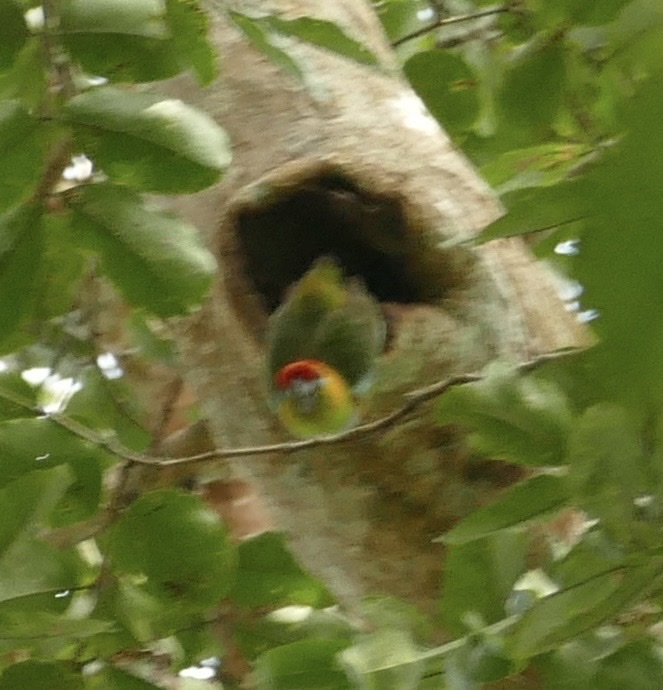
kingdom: Animalia
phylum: Chordata
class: Aves
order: Psittaciformes
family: Psittacidae
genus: Psittaculirostris
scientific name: Psittaculirostris desmarestii
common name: Large fig-parrot
